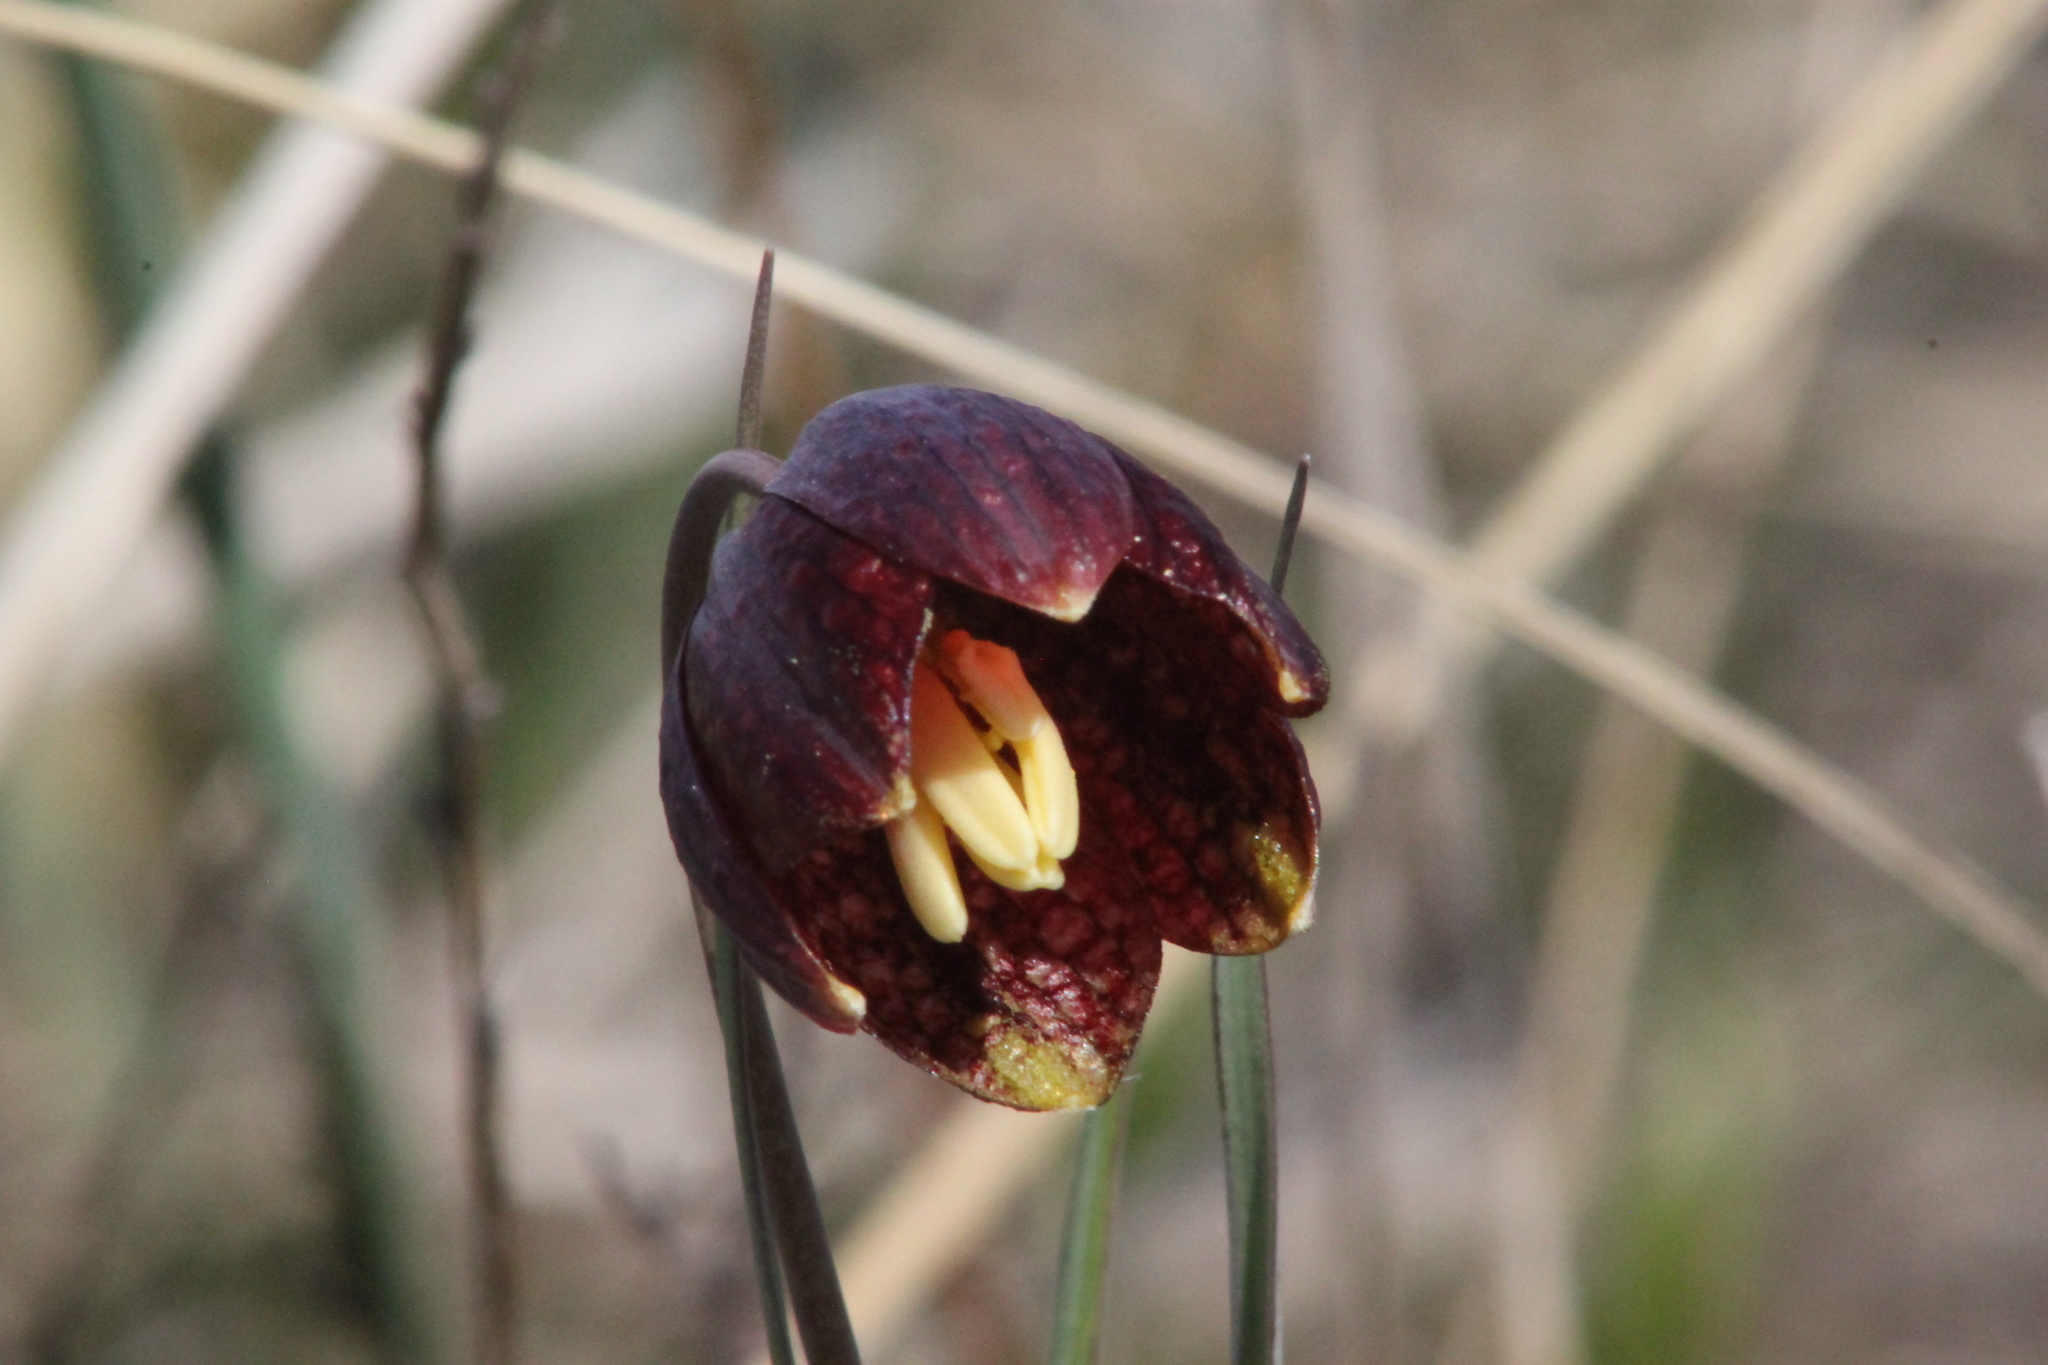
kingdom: Plantae
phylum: Tracheophyta
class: Liliopsida
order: Liliales
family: Liliaceae
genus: Fritillaria
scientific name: Fritillaria meleagroides
